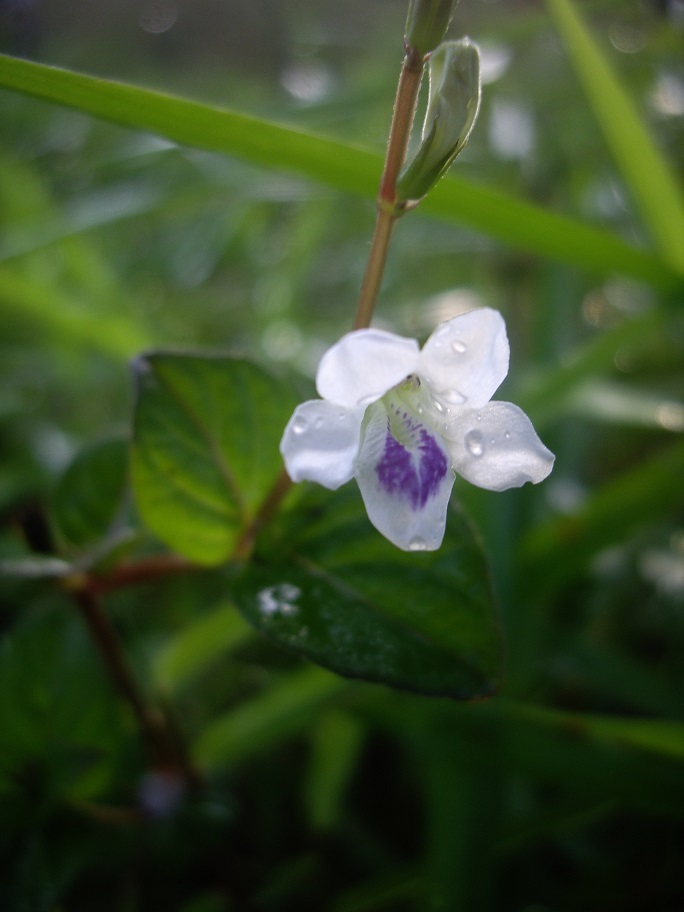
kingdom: Plantae
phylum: Tracheophyta
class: Magnoliopsida
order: Lamiales
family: Acanthaceae
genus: Asystasia
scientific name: Asystasia intrusa
